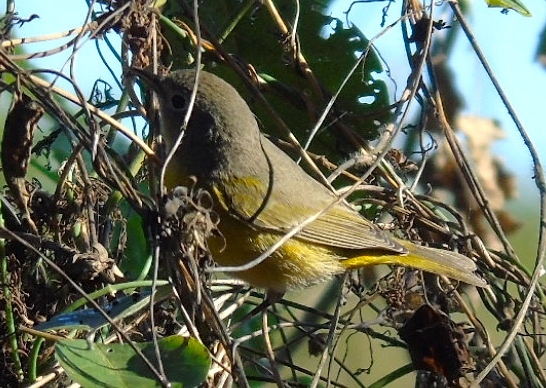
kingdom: Animalia
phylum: Chordata
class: Aves
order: Passeriformes
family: Parulidae
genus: Leiothlypis
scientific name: Leiothlypis celata
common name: Orange-crowned warbler
